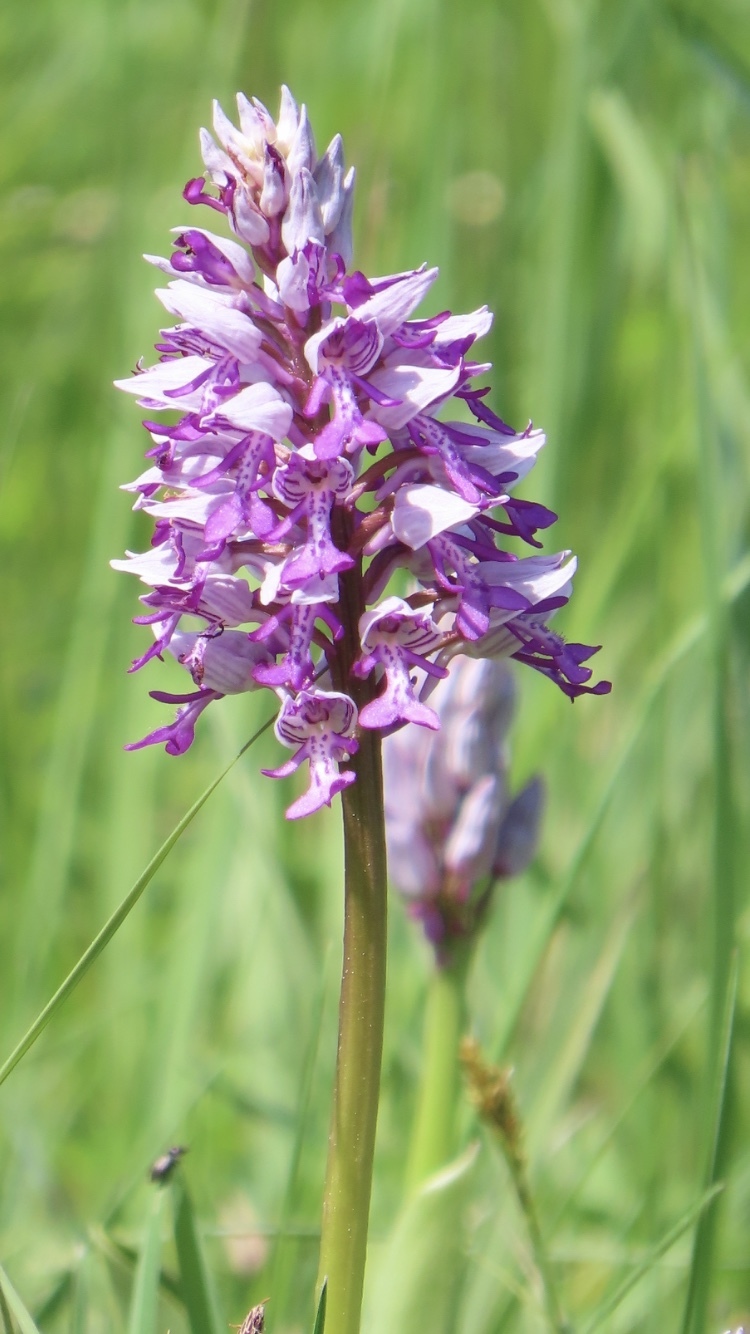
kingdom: Plantae
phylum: Tracheophyta
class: Liliopsida
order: Asparagales
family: Orchidaceae
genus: Orchis
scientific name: Orchis militaris
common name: Military orchid
